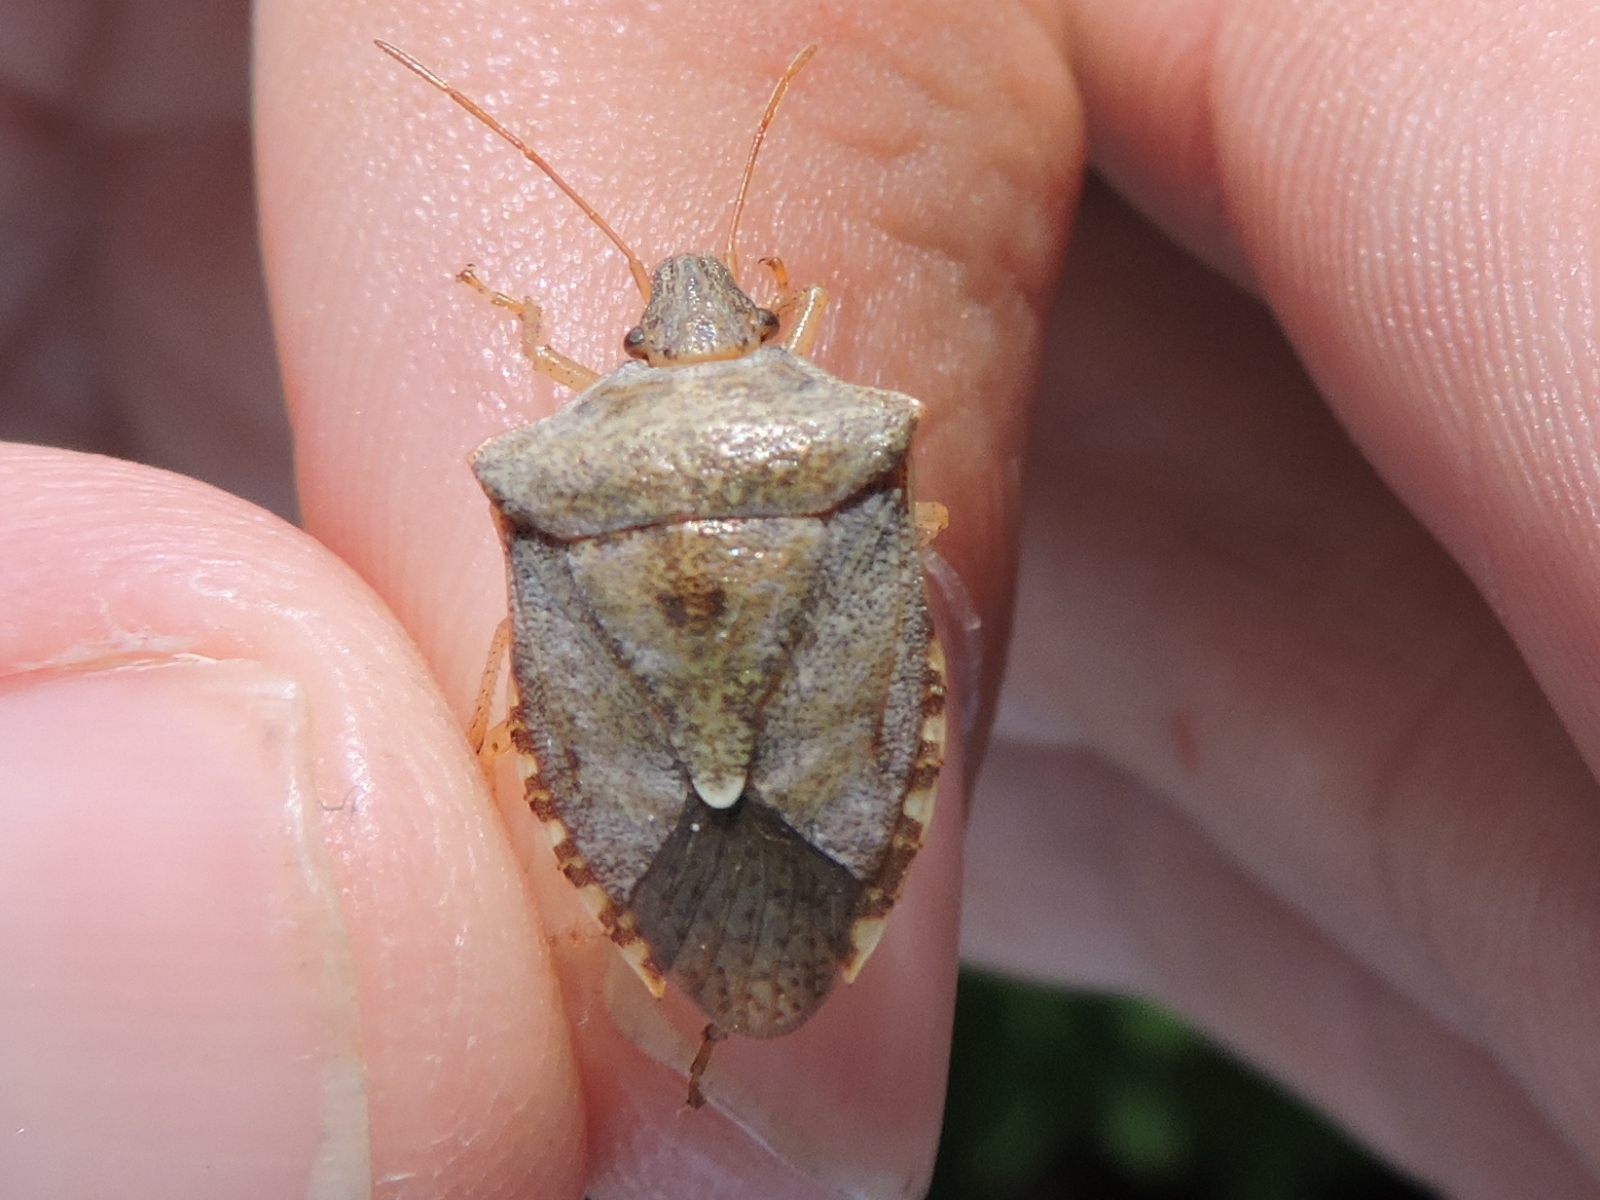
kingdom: Animalia
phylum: Arthropoda
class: Insecta
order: Hemiptera
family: Pentatomidae
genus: Euschistus
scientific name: Euschistus servus
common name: Brown stink bug
